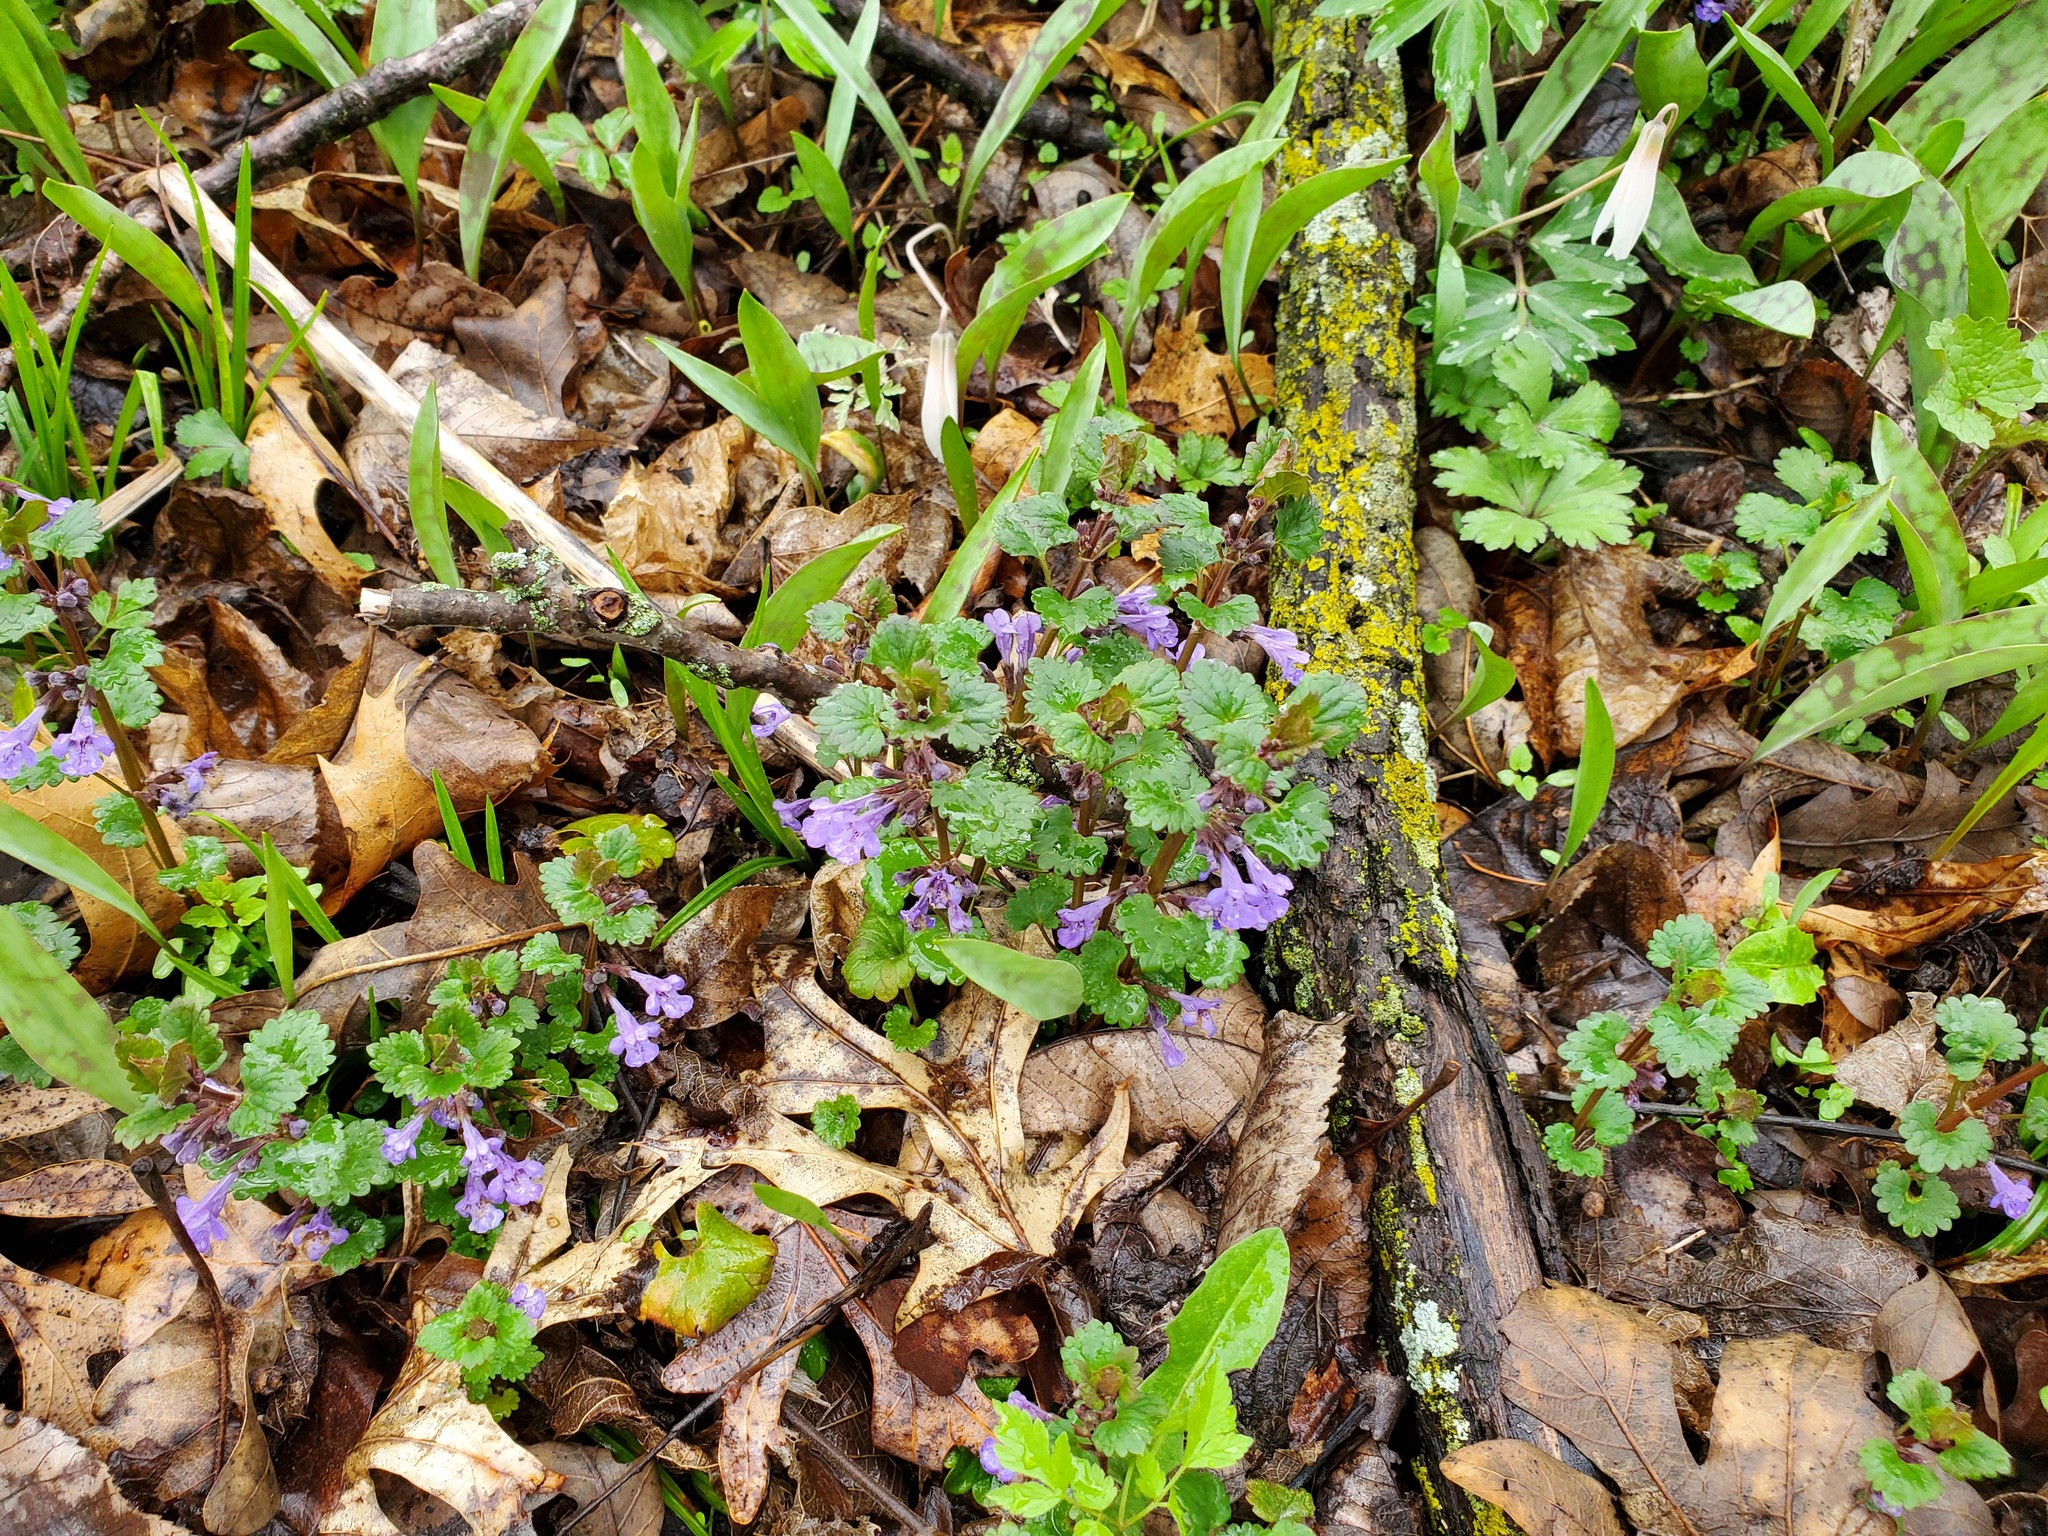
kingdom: Plantae
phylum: Tracheophyta
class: Magnoliopsida
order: Lamiales
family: Lamiaceae
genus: Glechoma
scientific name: Glechoma hederacea
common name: Ground ivy
